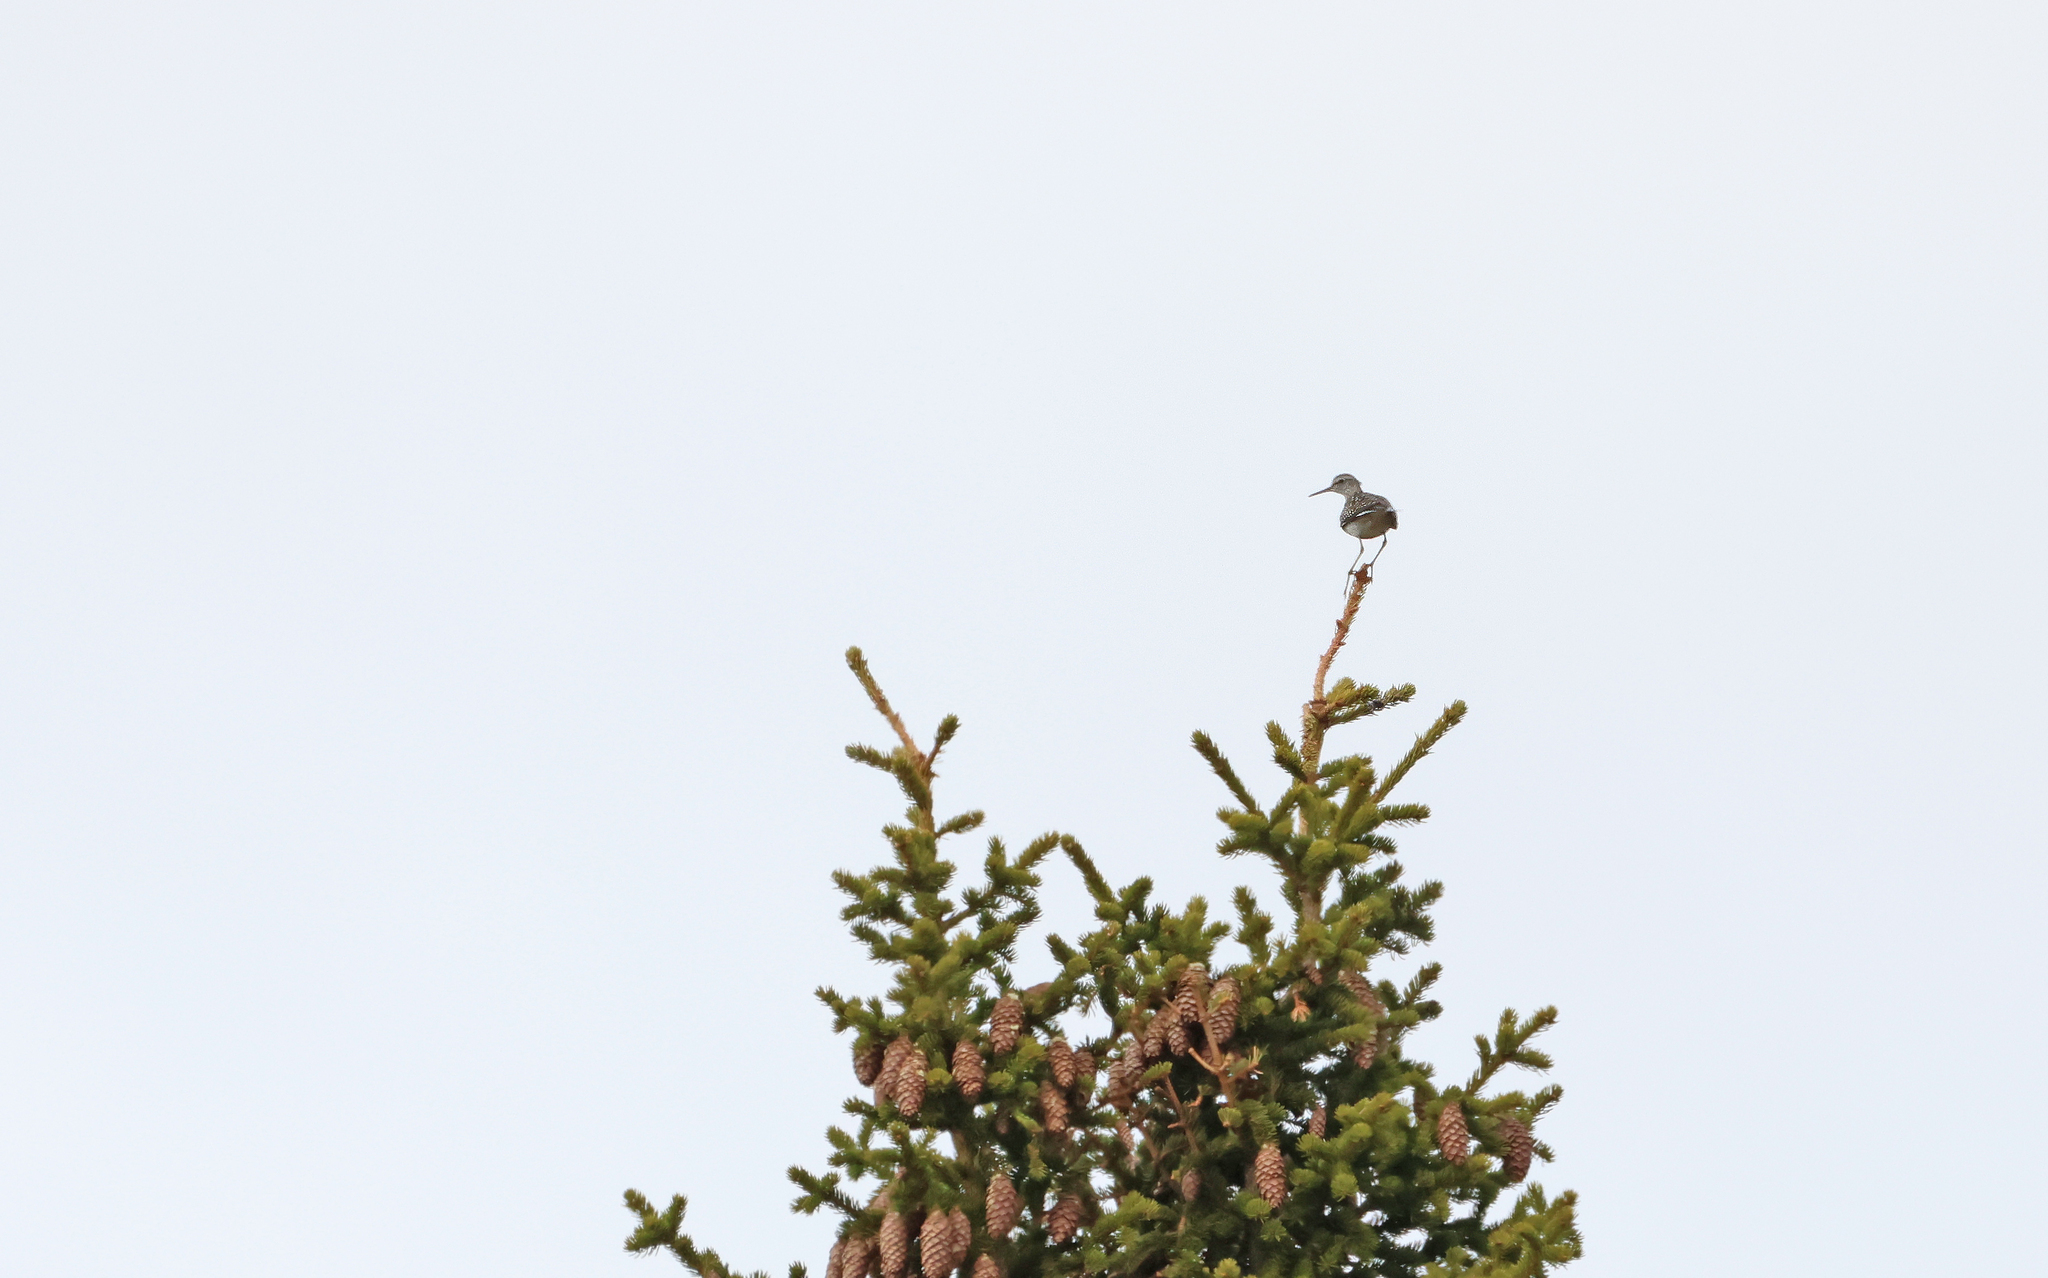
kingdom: Animalia
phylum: Chordata
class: Aves
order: Charadriiformes
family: Scolopacidae
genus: Tringa
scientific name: Tringa glareola
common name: Wood sandpiper
